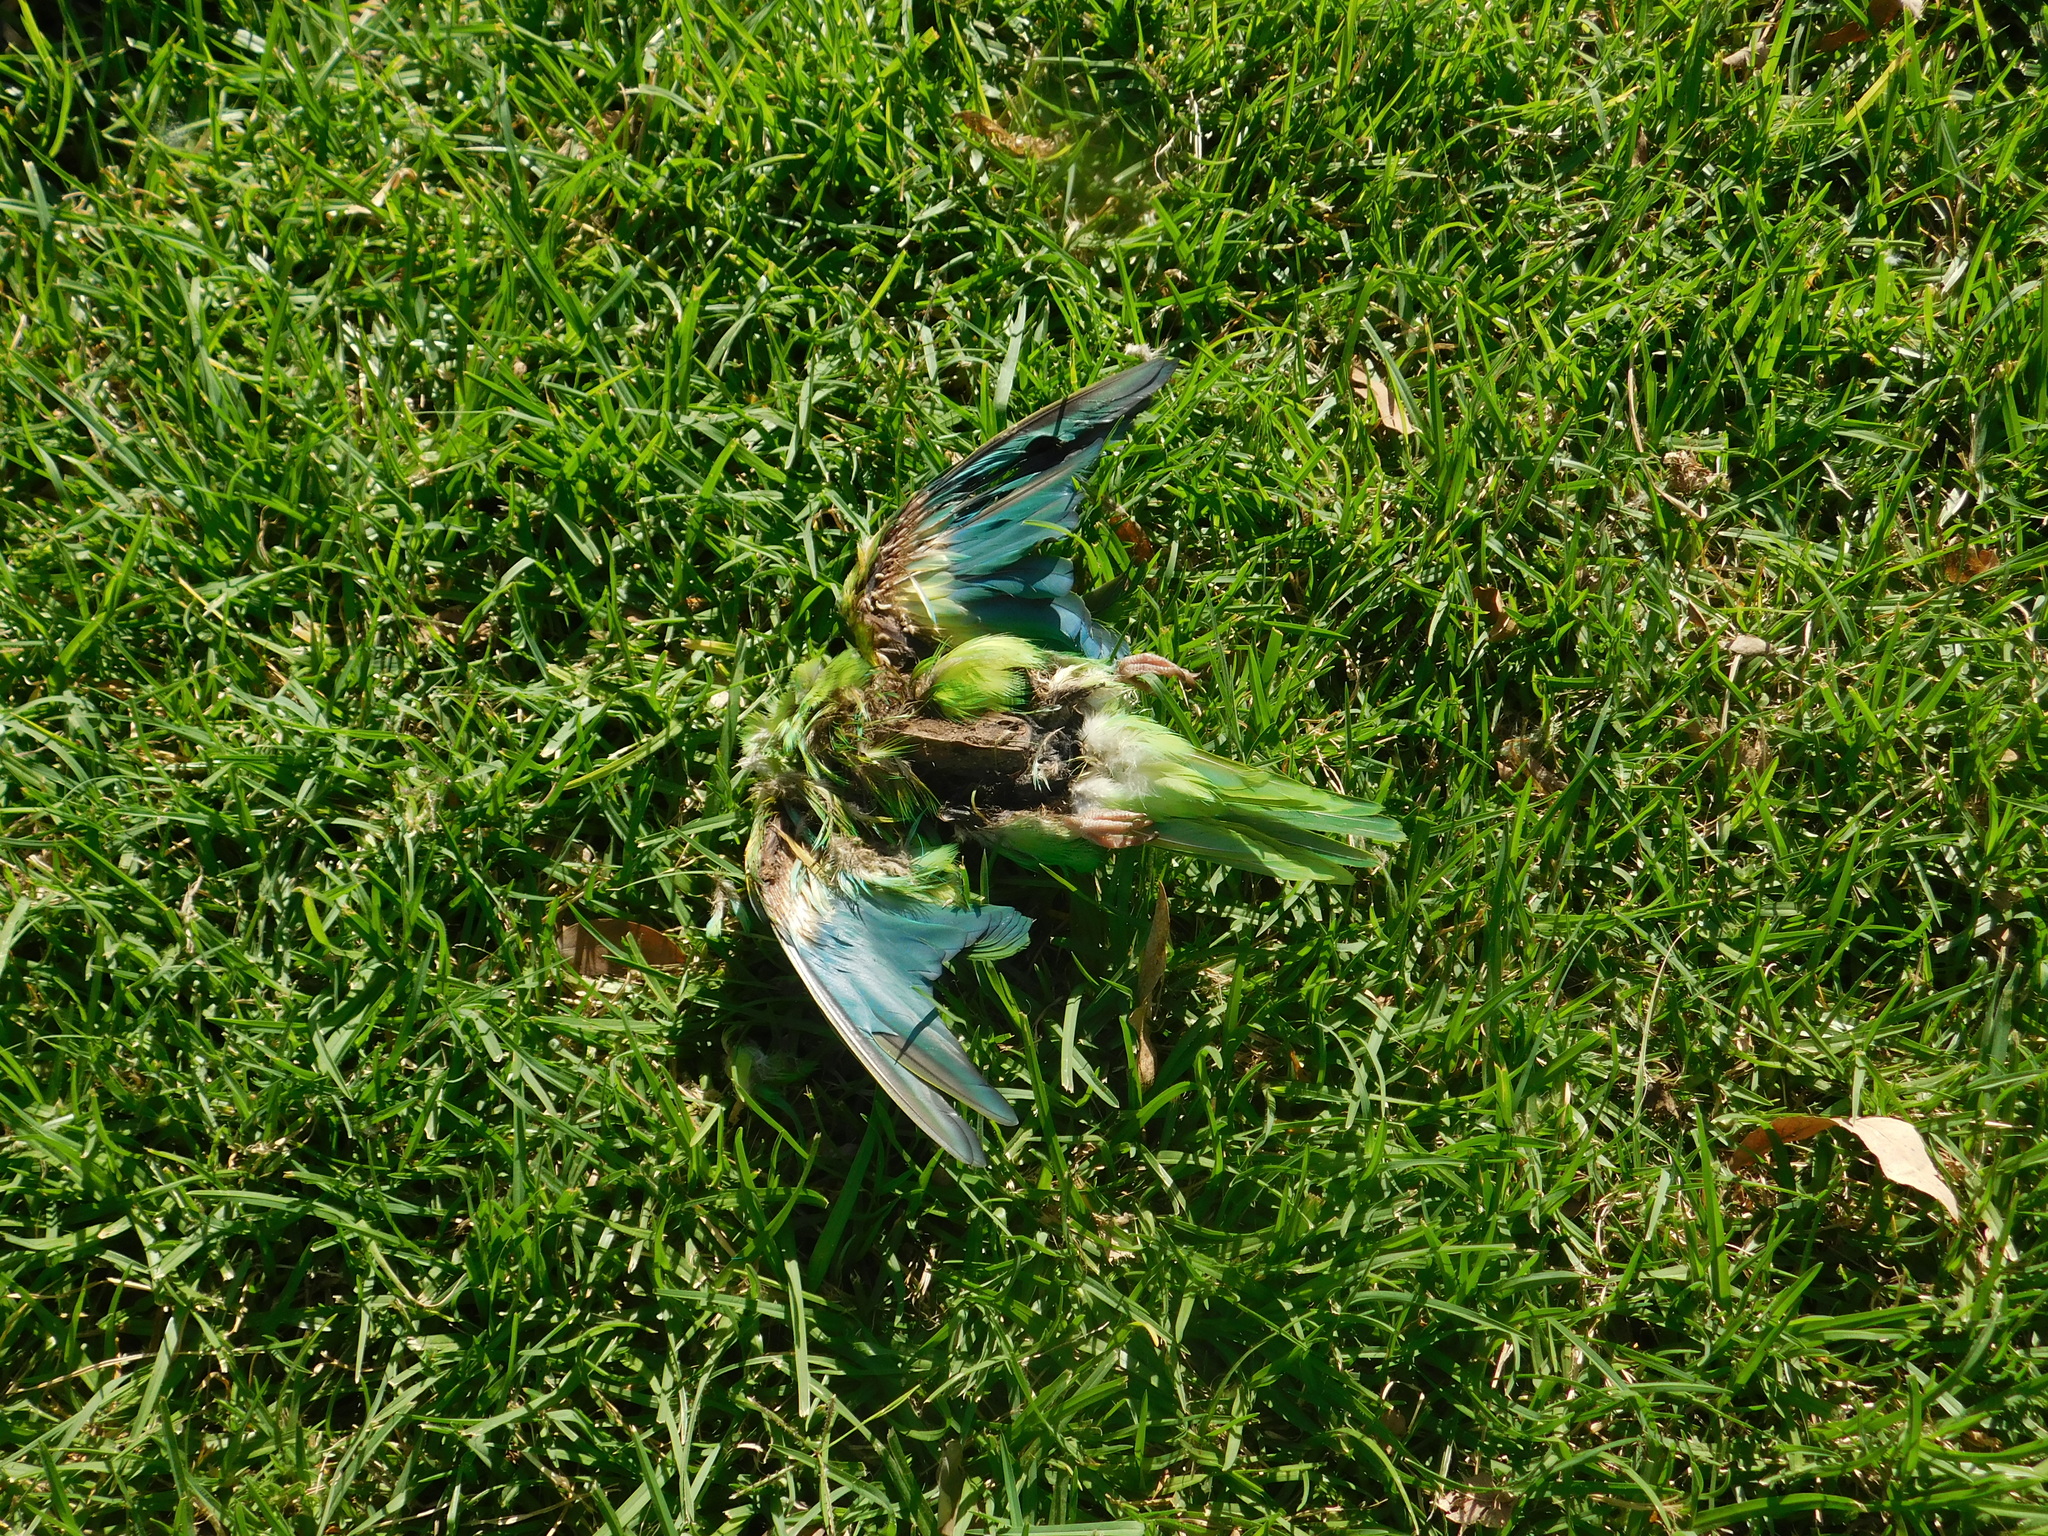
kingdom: Animalia
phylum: Chordata
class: Aves
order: Psittaciformes
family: Psittacidae
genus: Brotogeris
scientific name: Brotogeris chiriri
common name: Yellow-chevroned parakeet
